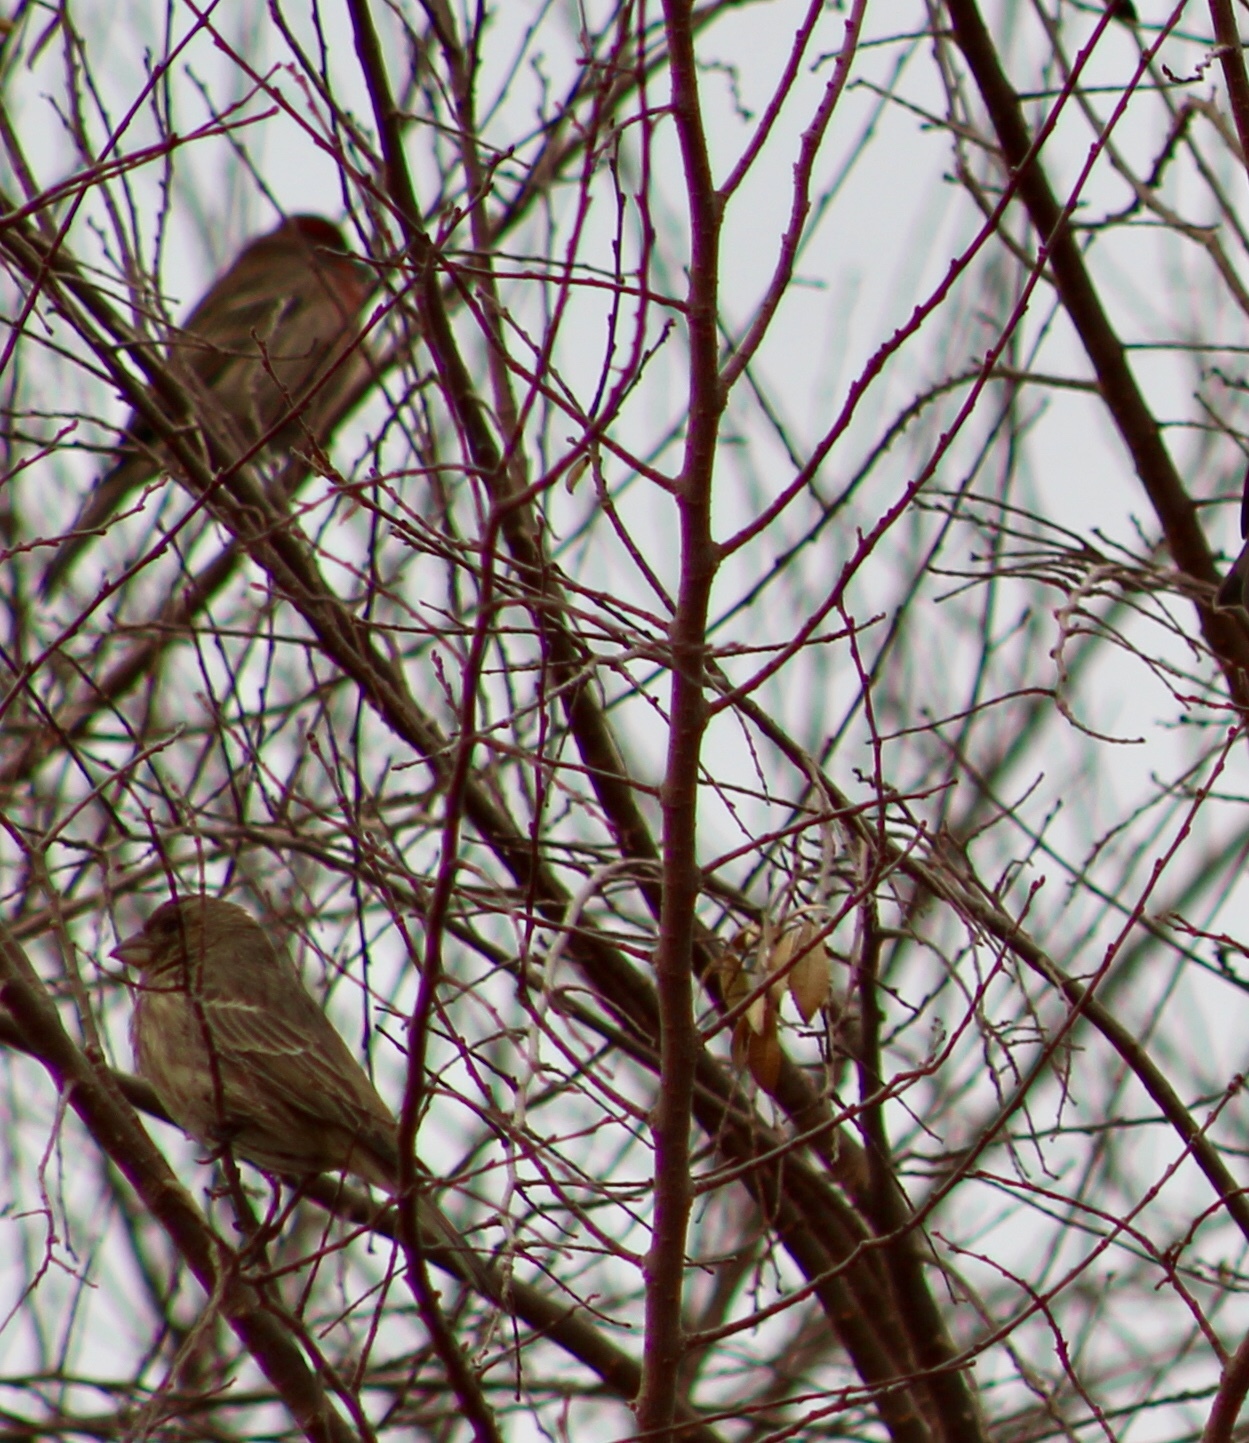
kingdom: Animalia
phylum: Chordata
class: Aves
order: Passeriformes
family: Fringillidae
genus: Haemorhous
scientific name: Haemorhous mexicanus
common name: House finch
